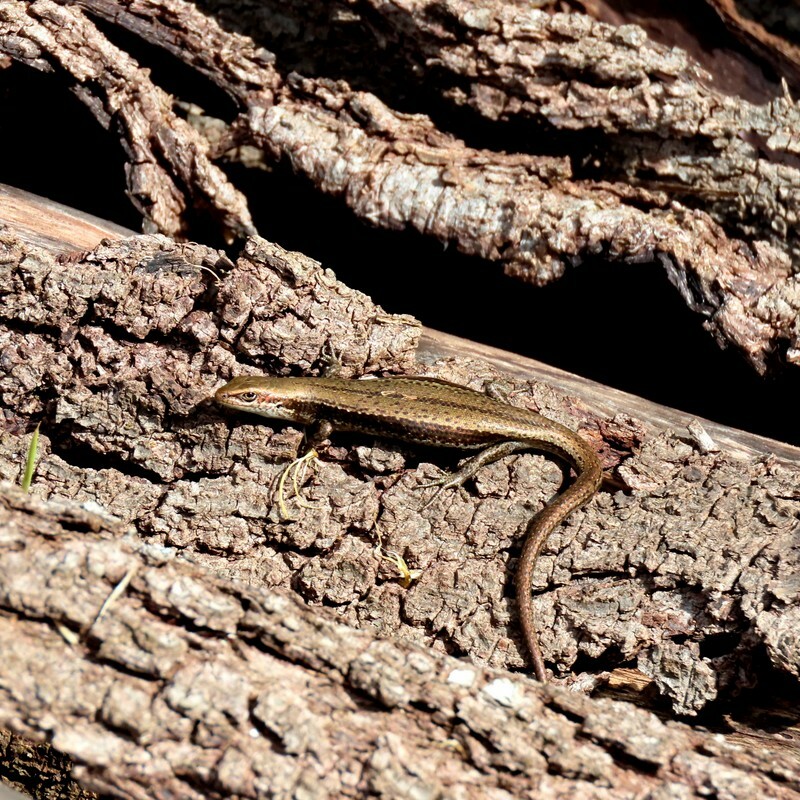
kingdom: Animalia
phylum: Chordata
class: Squamata
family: Scincidae
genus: Pseudemoia
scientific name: Pseudemoia entrecasteauxii
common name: Entrecasteaux's skink
